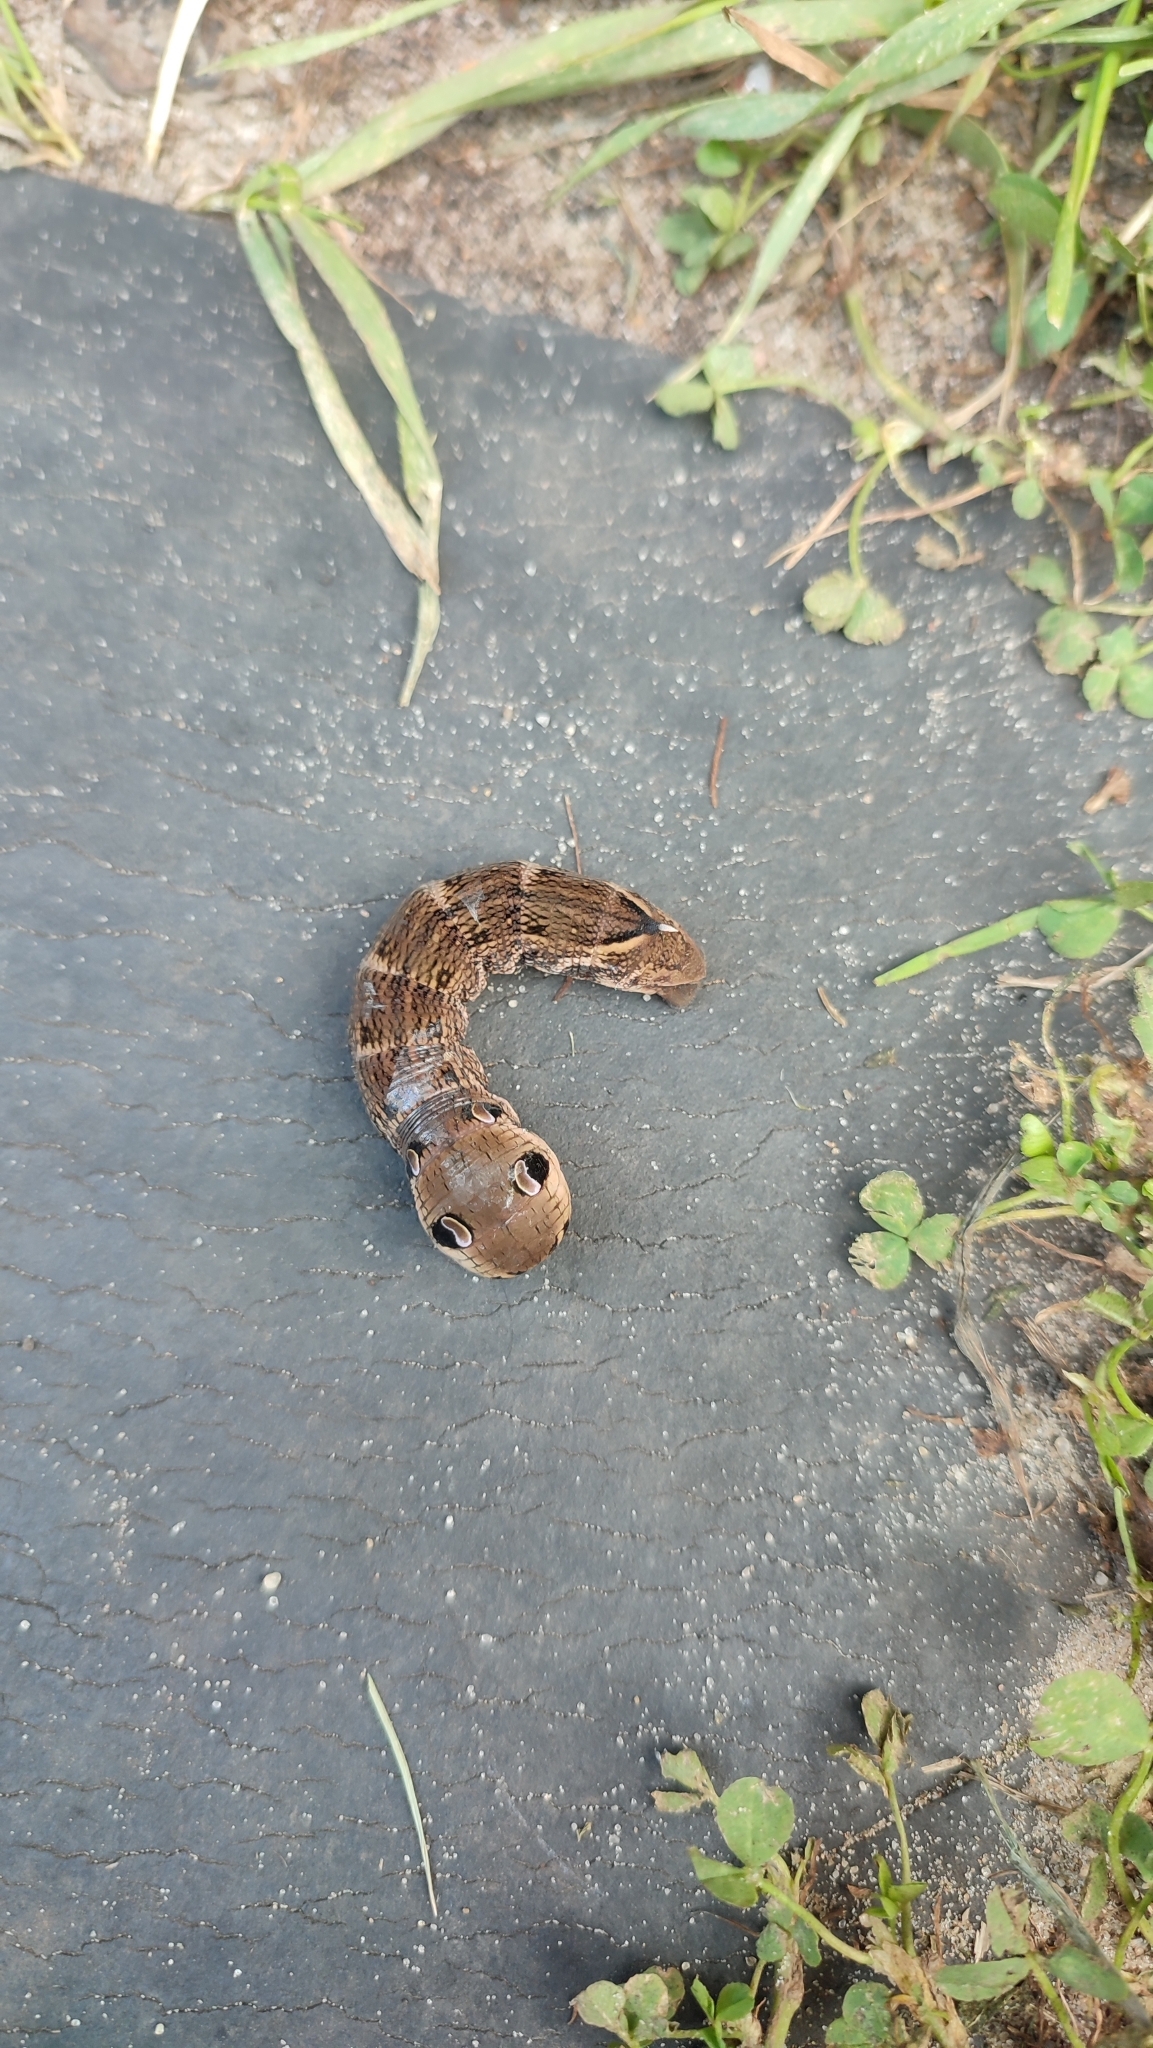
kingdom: Animalia
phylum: Arthropoda
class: Insecta
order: Lepidoptera
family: Sphingidae
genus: Deilephila
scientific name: Deilephila elpenor
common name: Elephant hawk-moth
